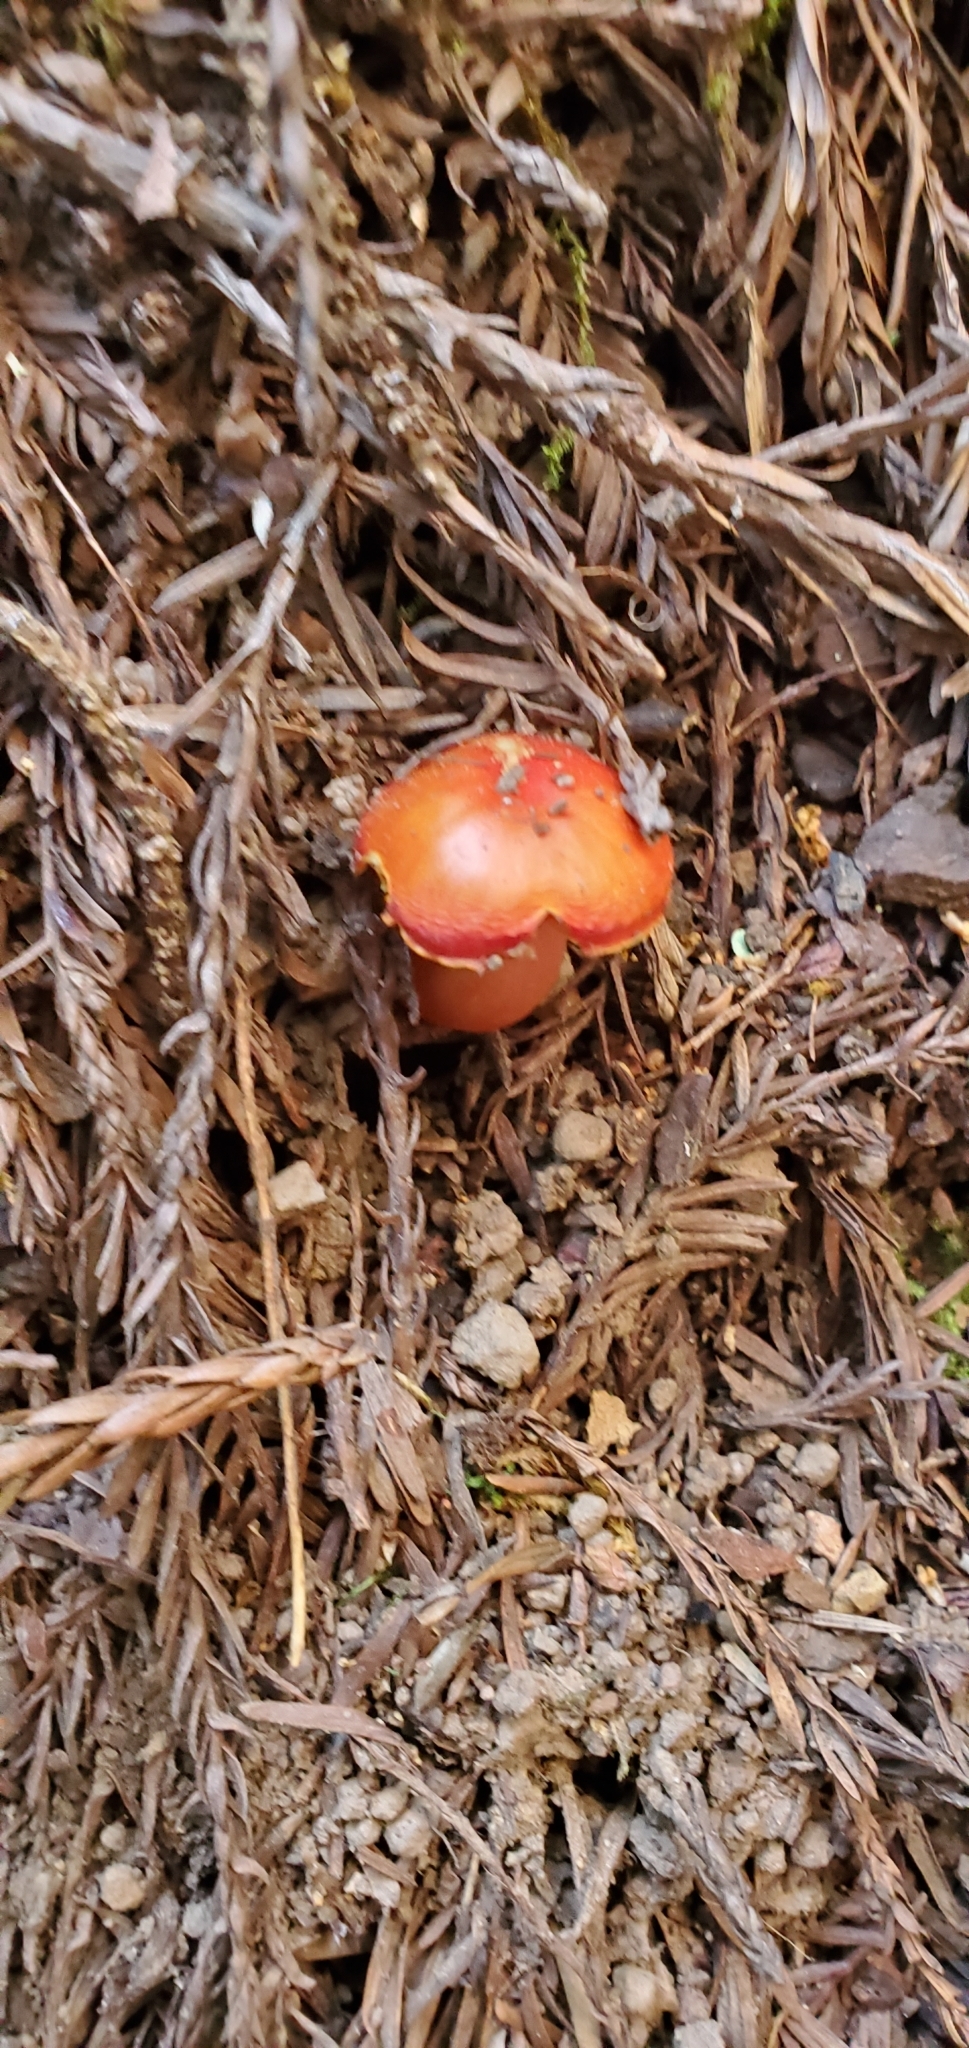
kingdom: Fungi
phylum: Basidiomycota
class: Agaricomycetes
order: Agaricales
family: Hygrophoraceae
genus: Hygrocybe
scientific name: Hygrocybe coccinea
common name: Scarlet hood
